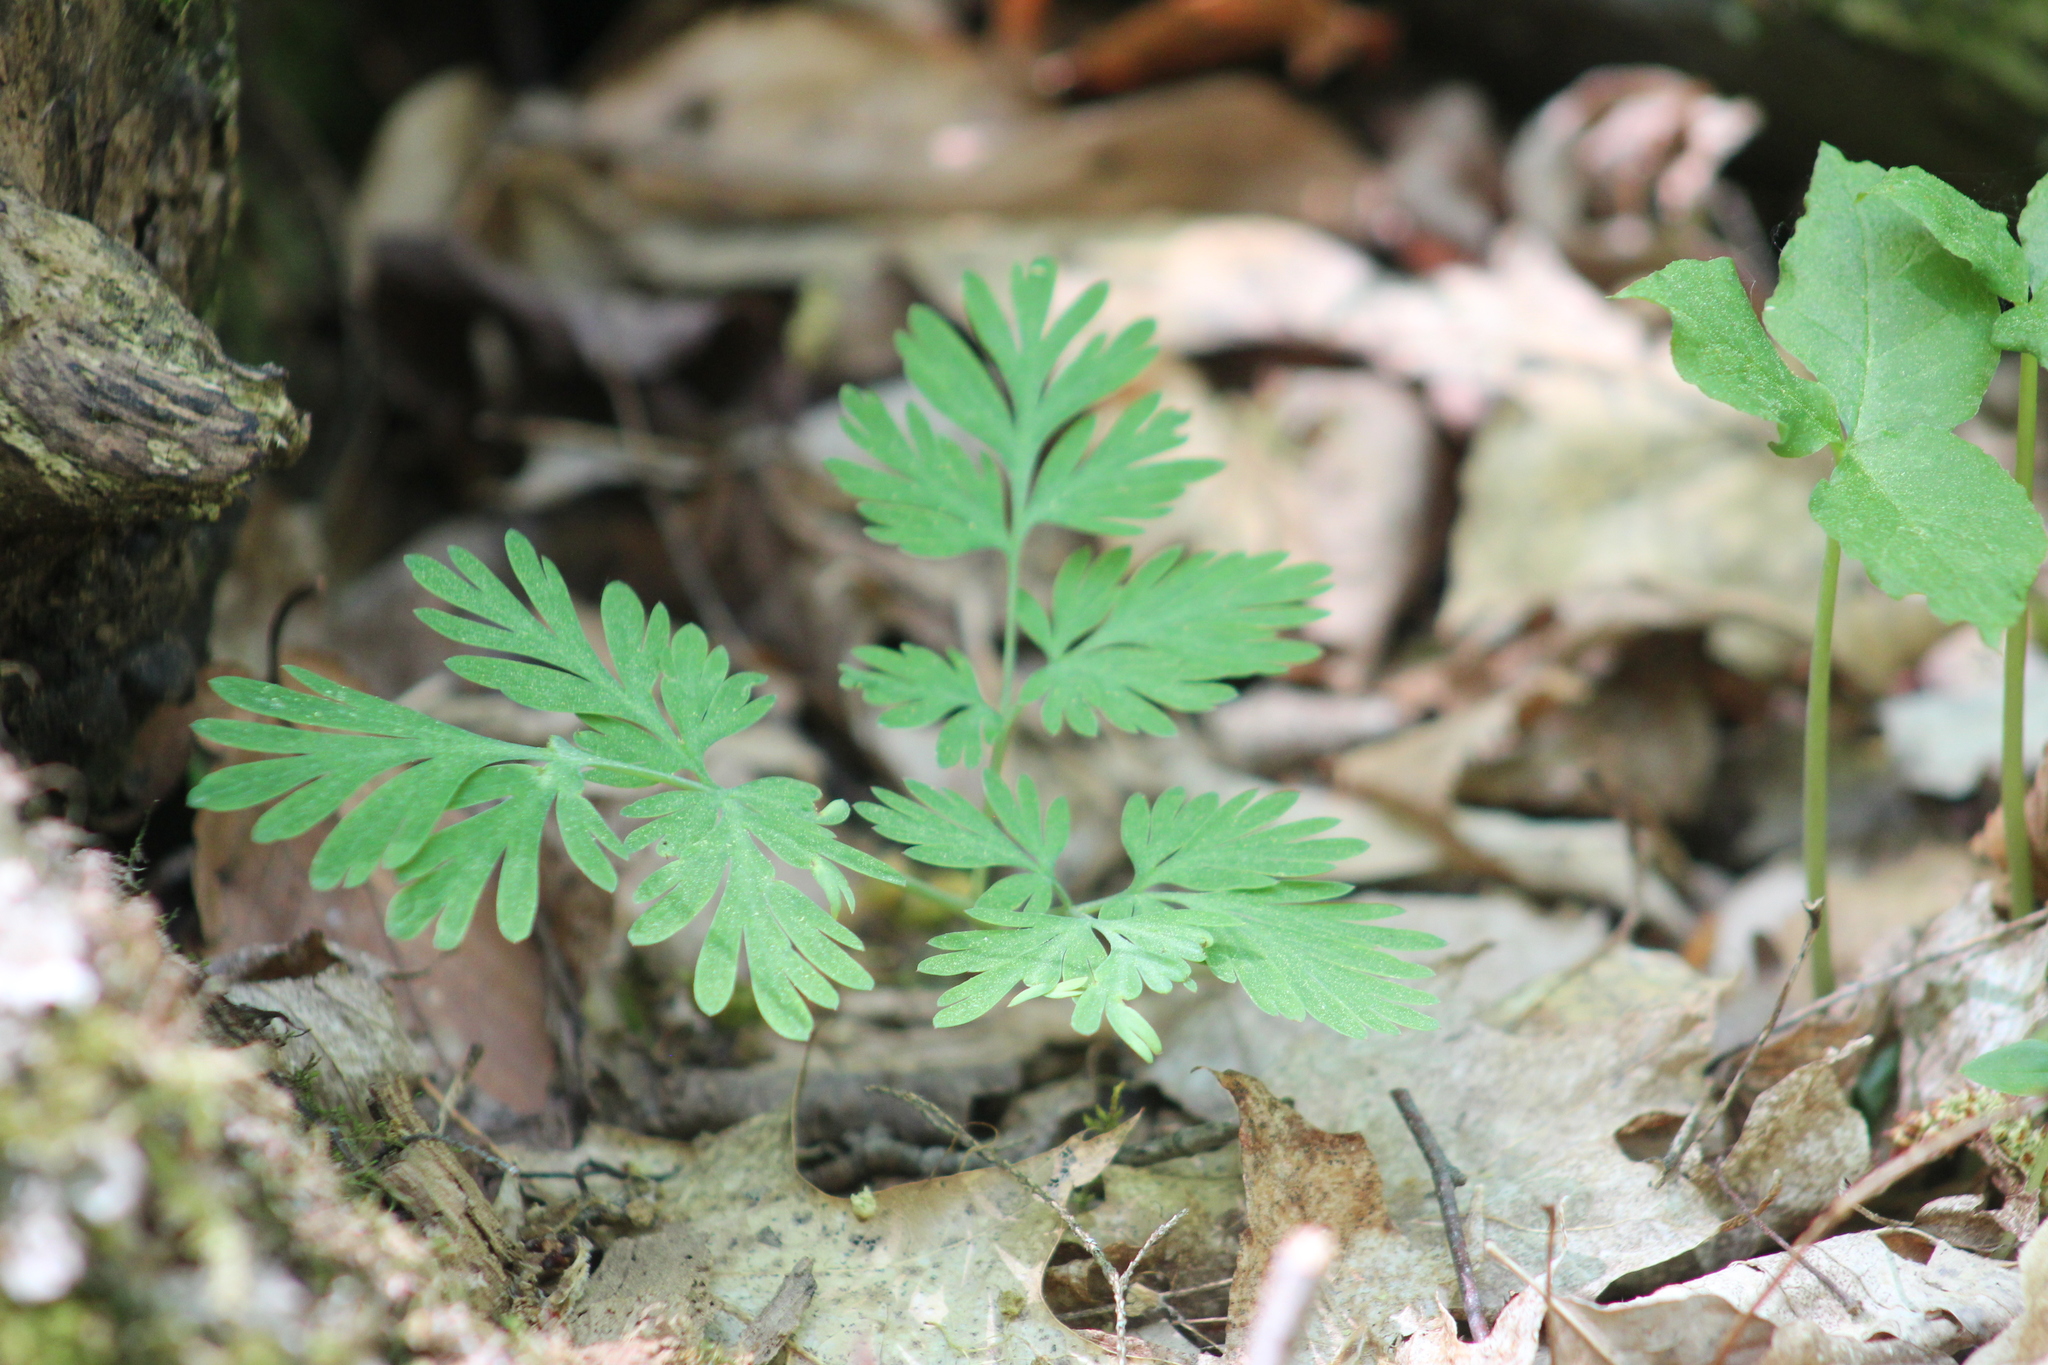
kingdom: Plantae
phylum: Tracheophyta
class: Magnoliopsida
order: Ranunculales
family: Papaveraceae
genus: Dicentra
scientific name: Dicentra cucullaria
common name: Dutchman's breeches
